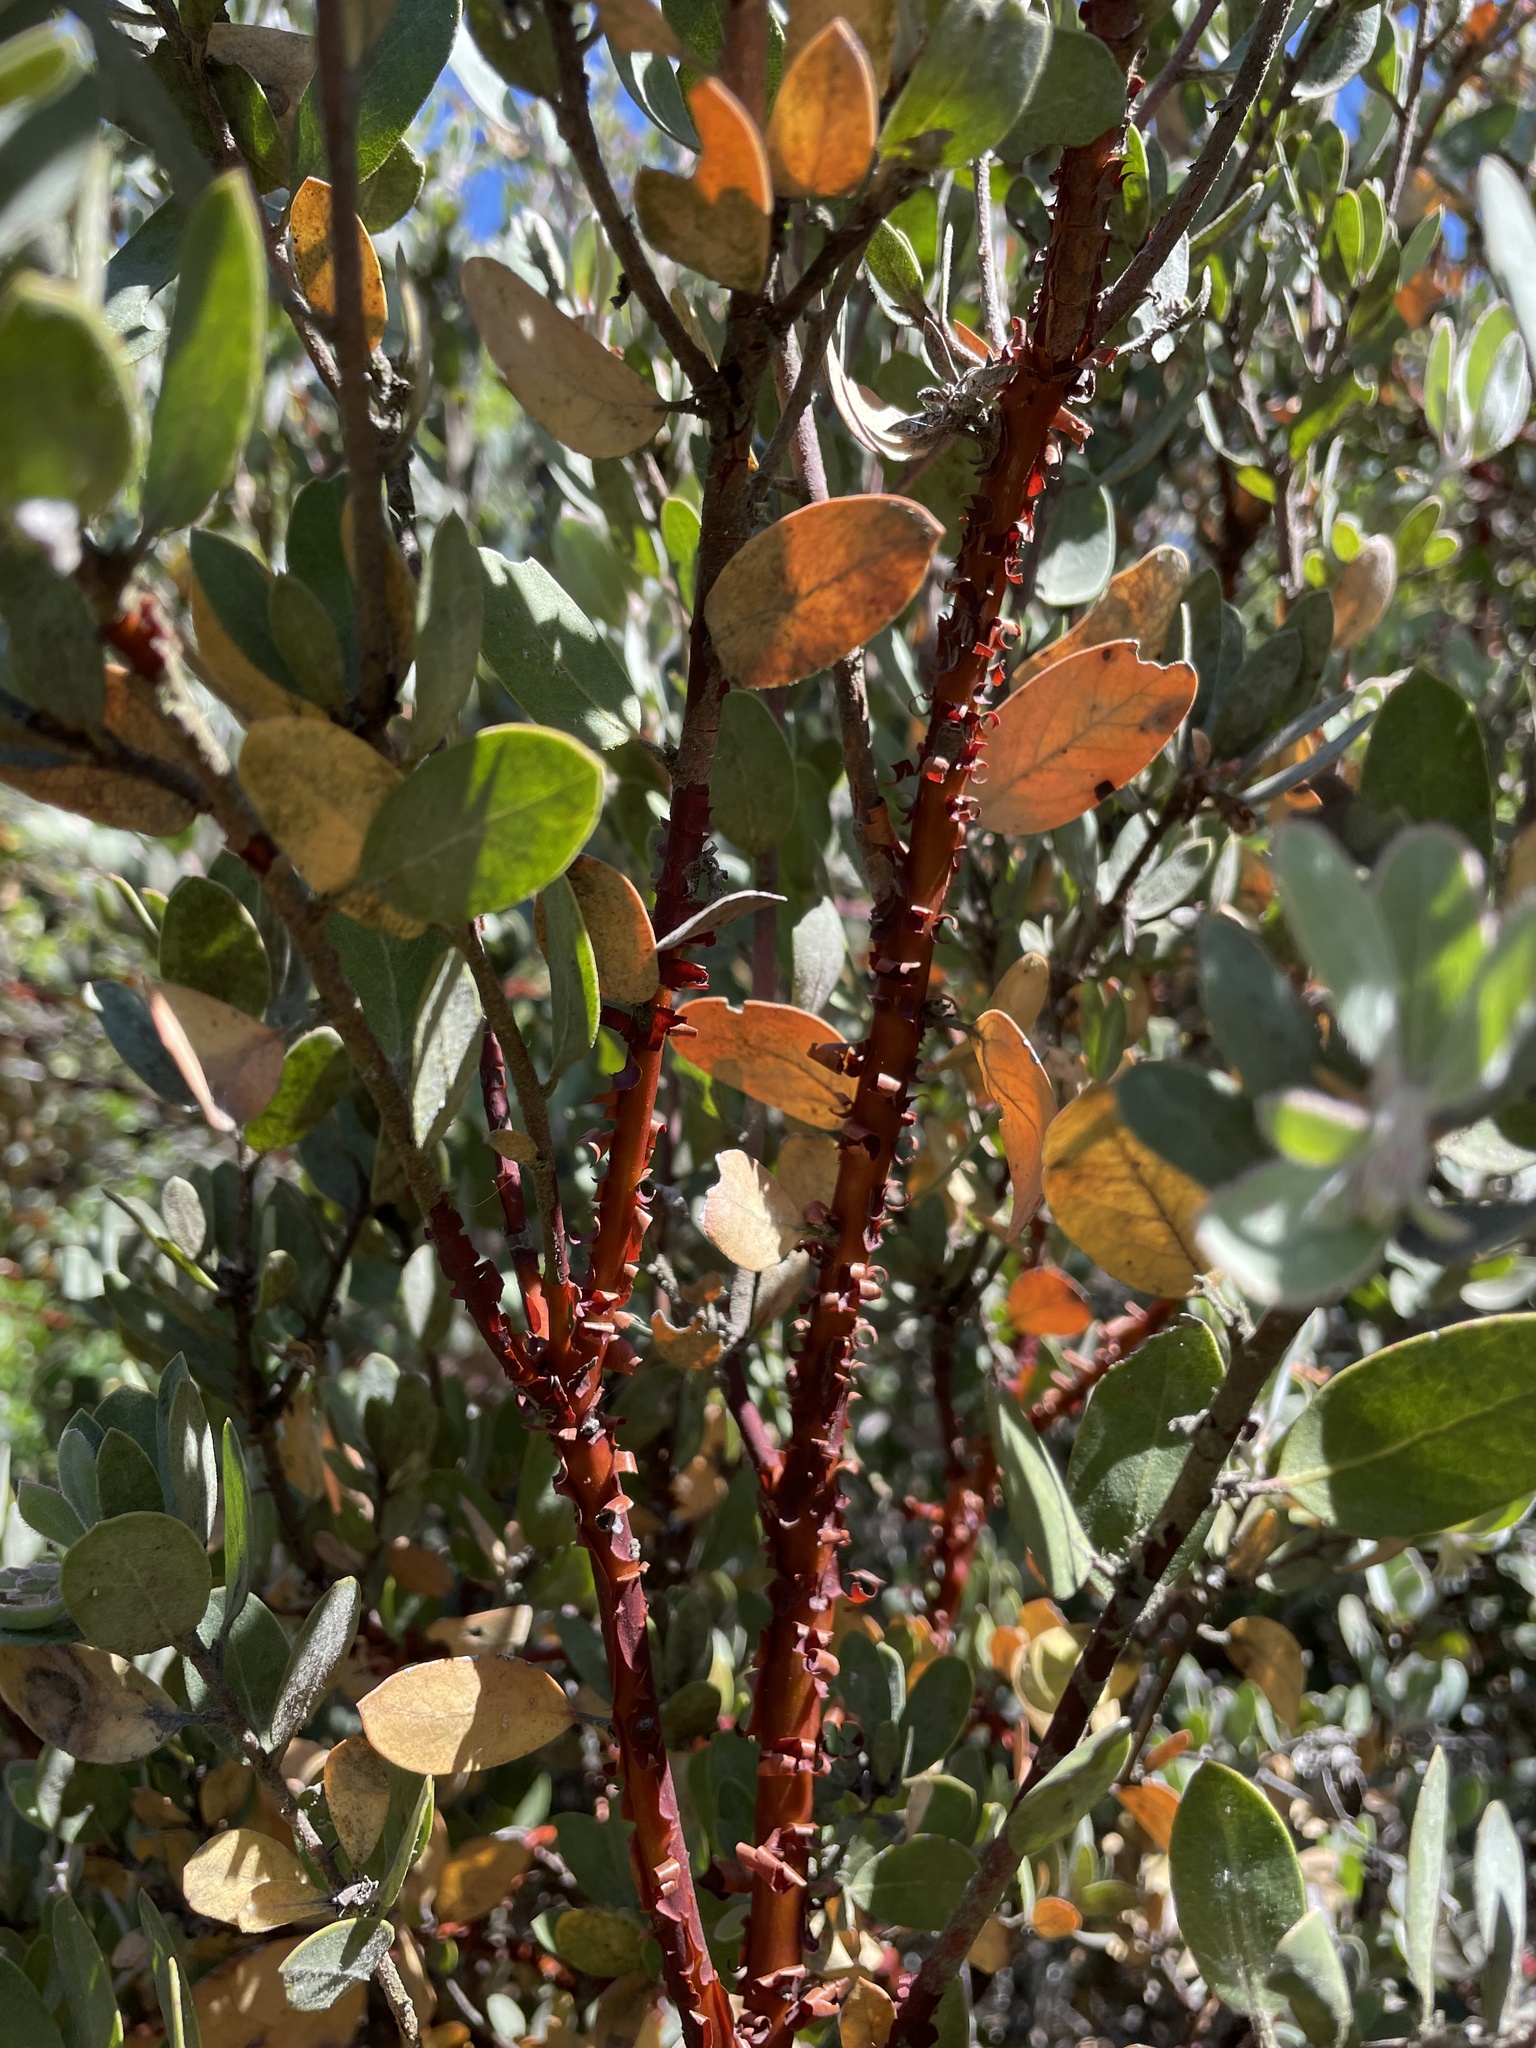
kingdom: Plantae
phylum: Tracheophyta
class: Magnoliopsida
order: Ericales
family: Ericaceae
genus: Arctostaphylos
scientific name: Arctostaphylos silvicola
